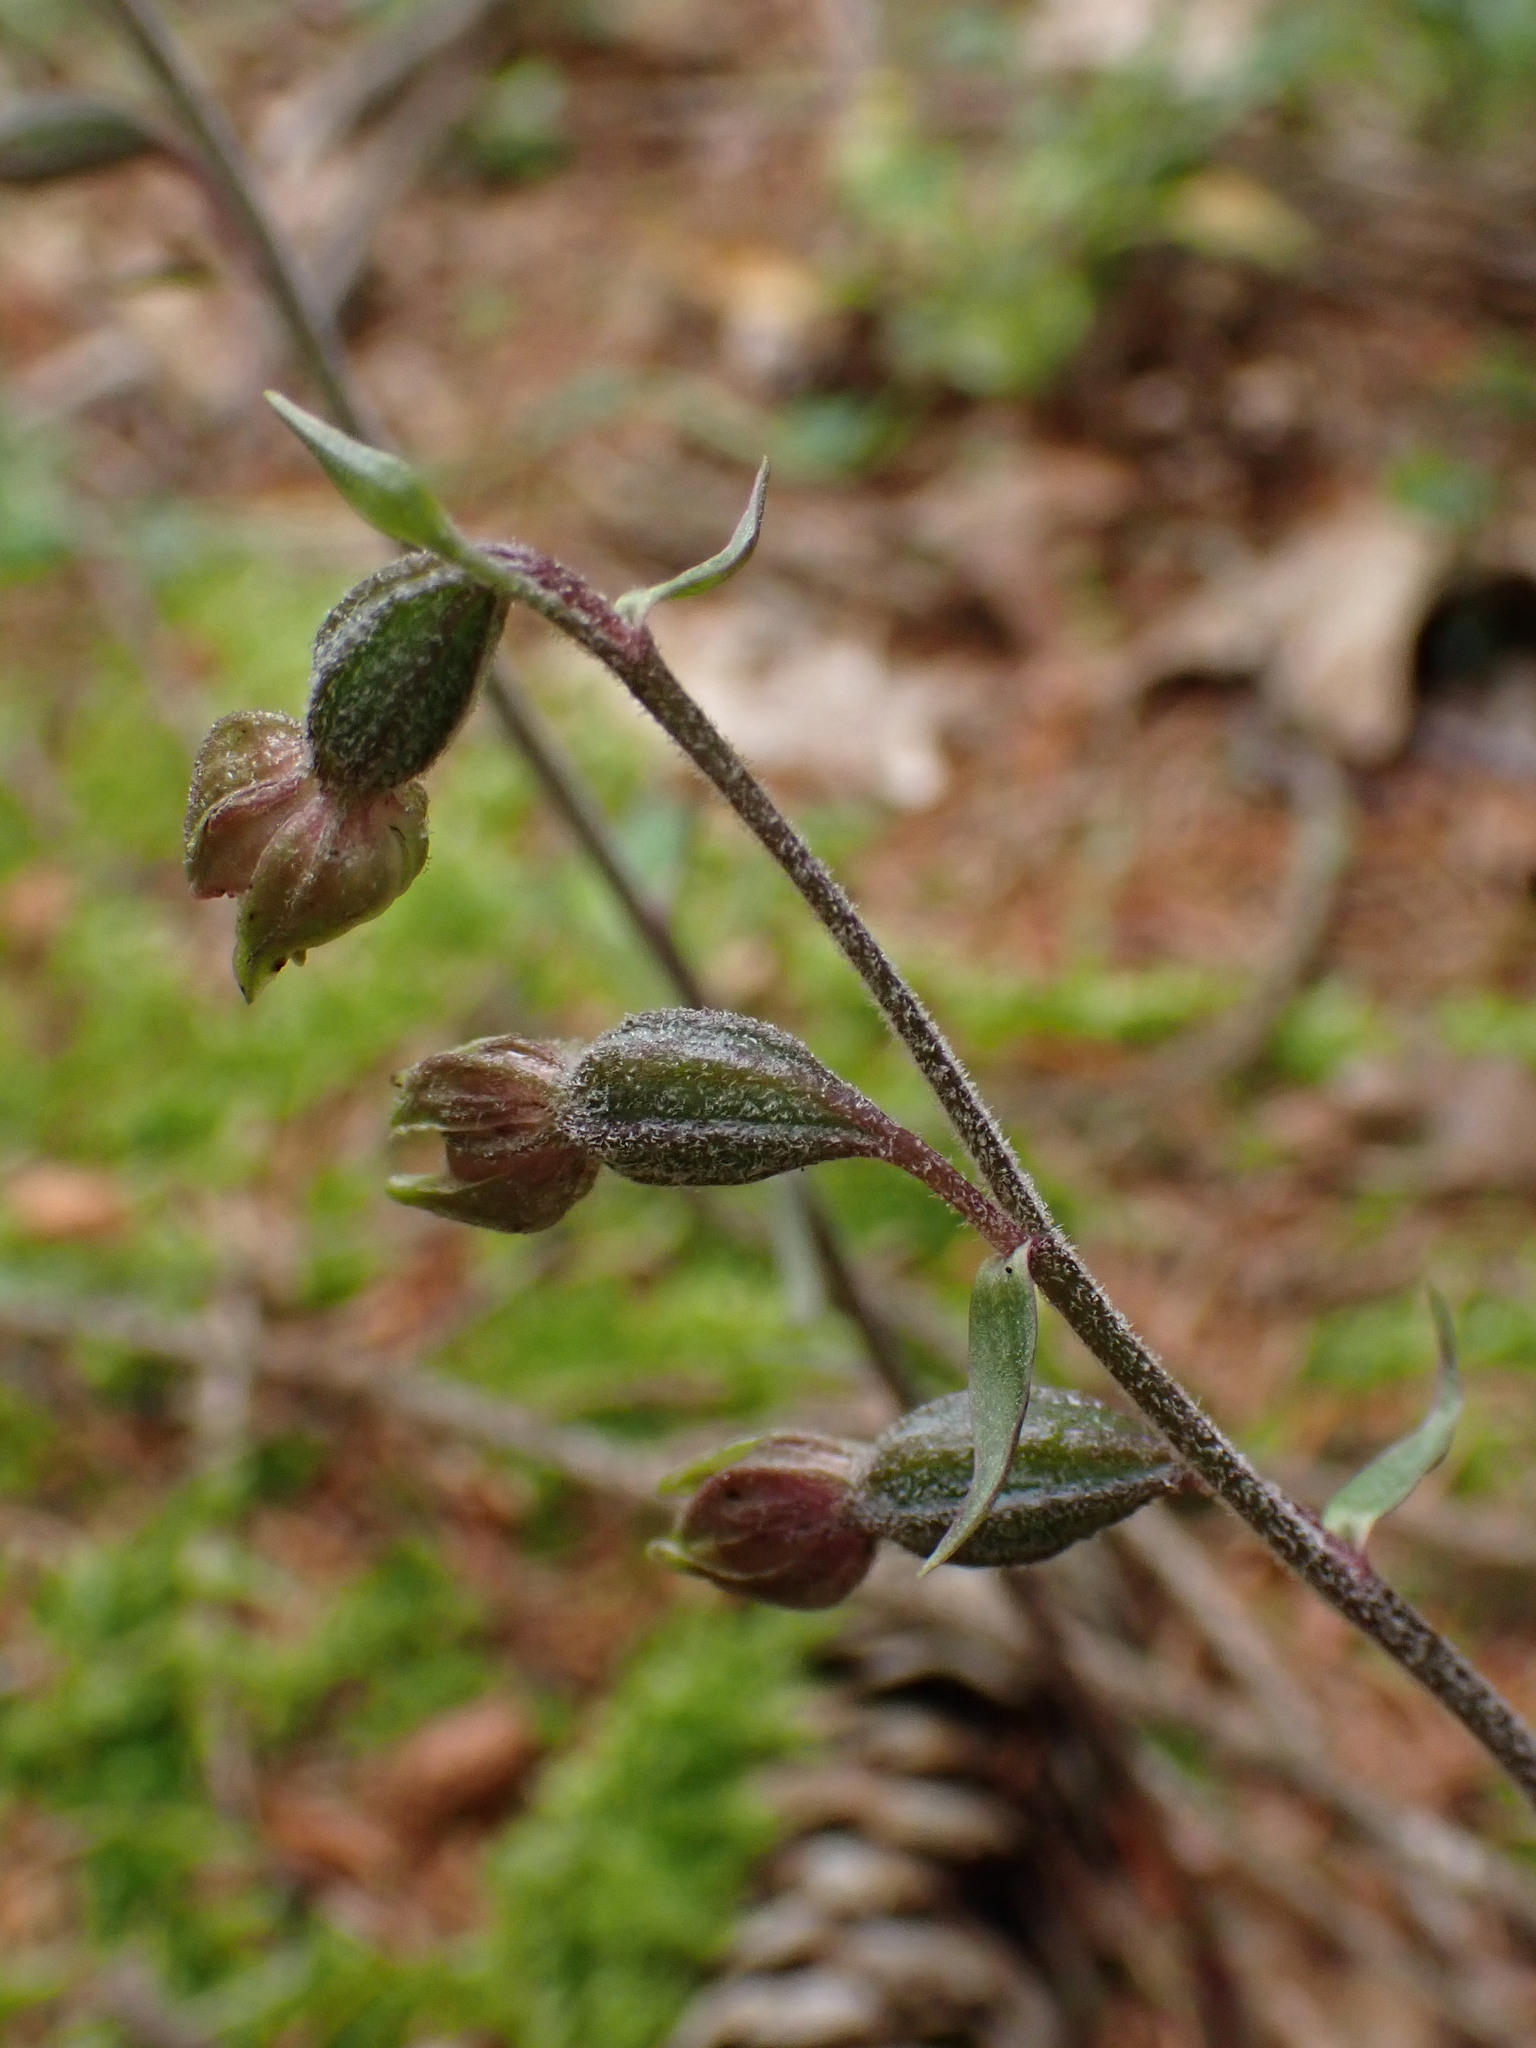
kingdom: Plantae
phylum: Tracheophyta
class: Liliopsida
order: Asparagales
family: Orchidaceae
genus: Epipactis
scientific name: Epipactis microphylla
